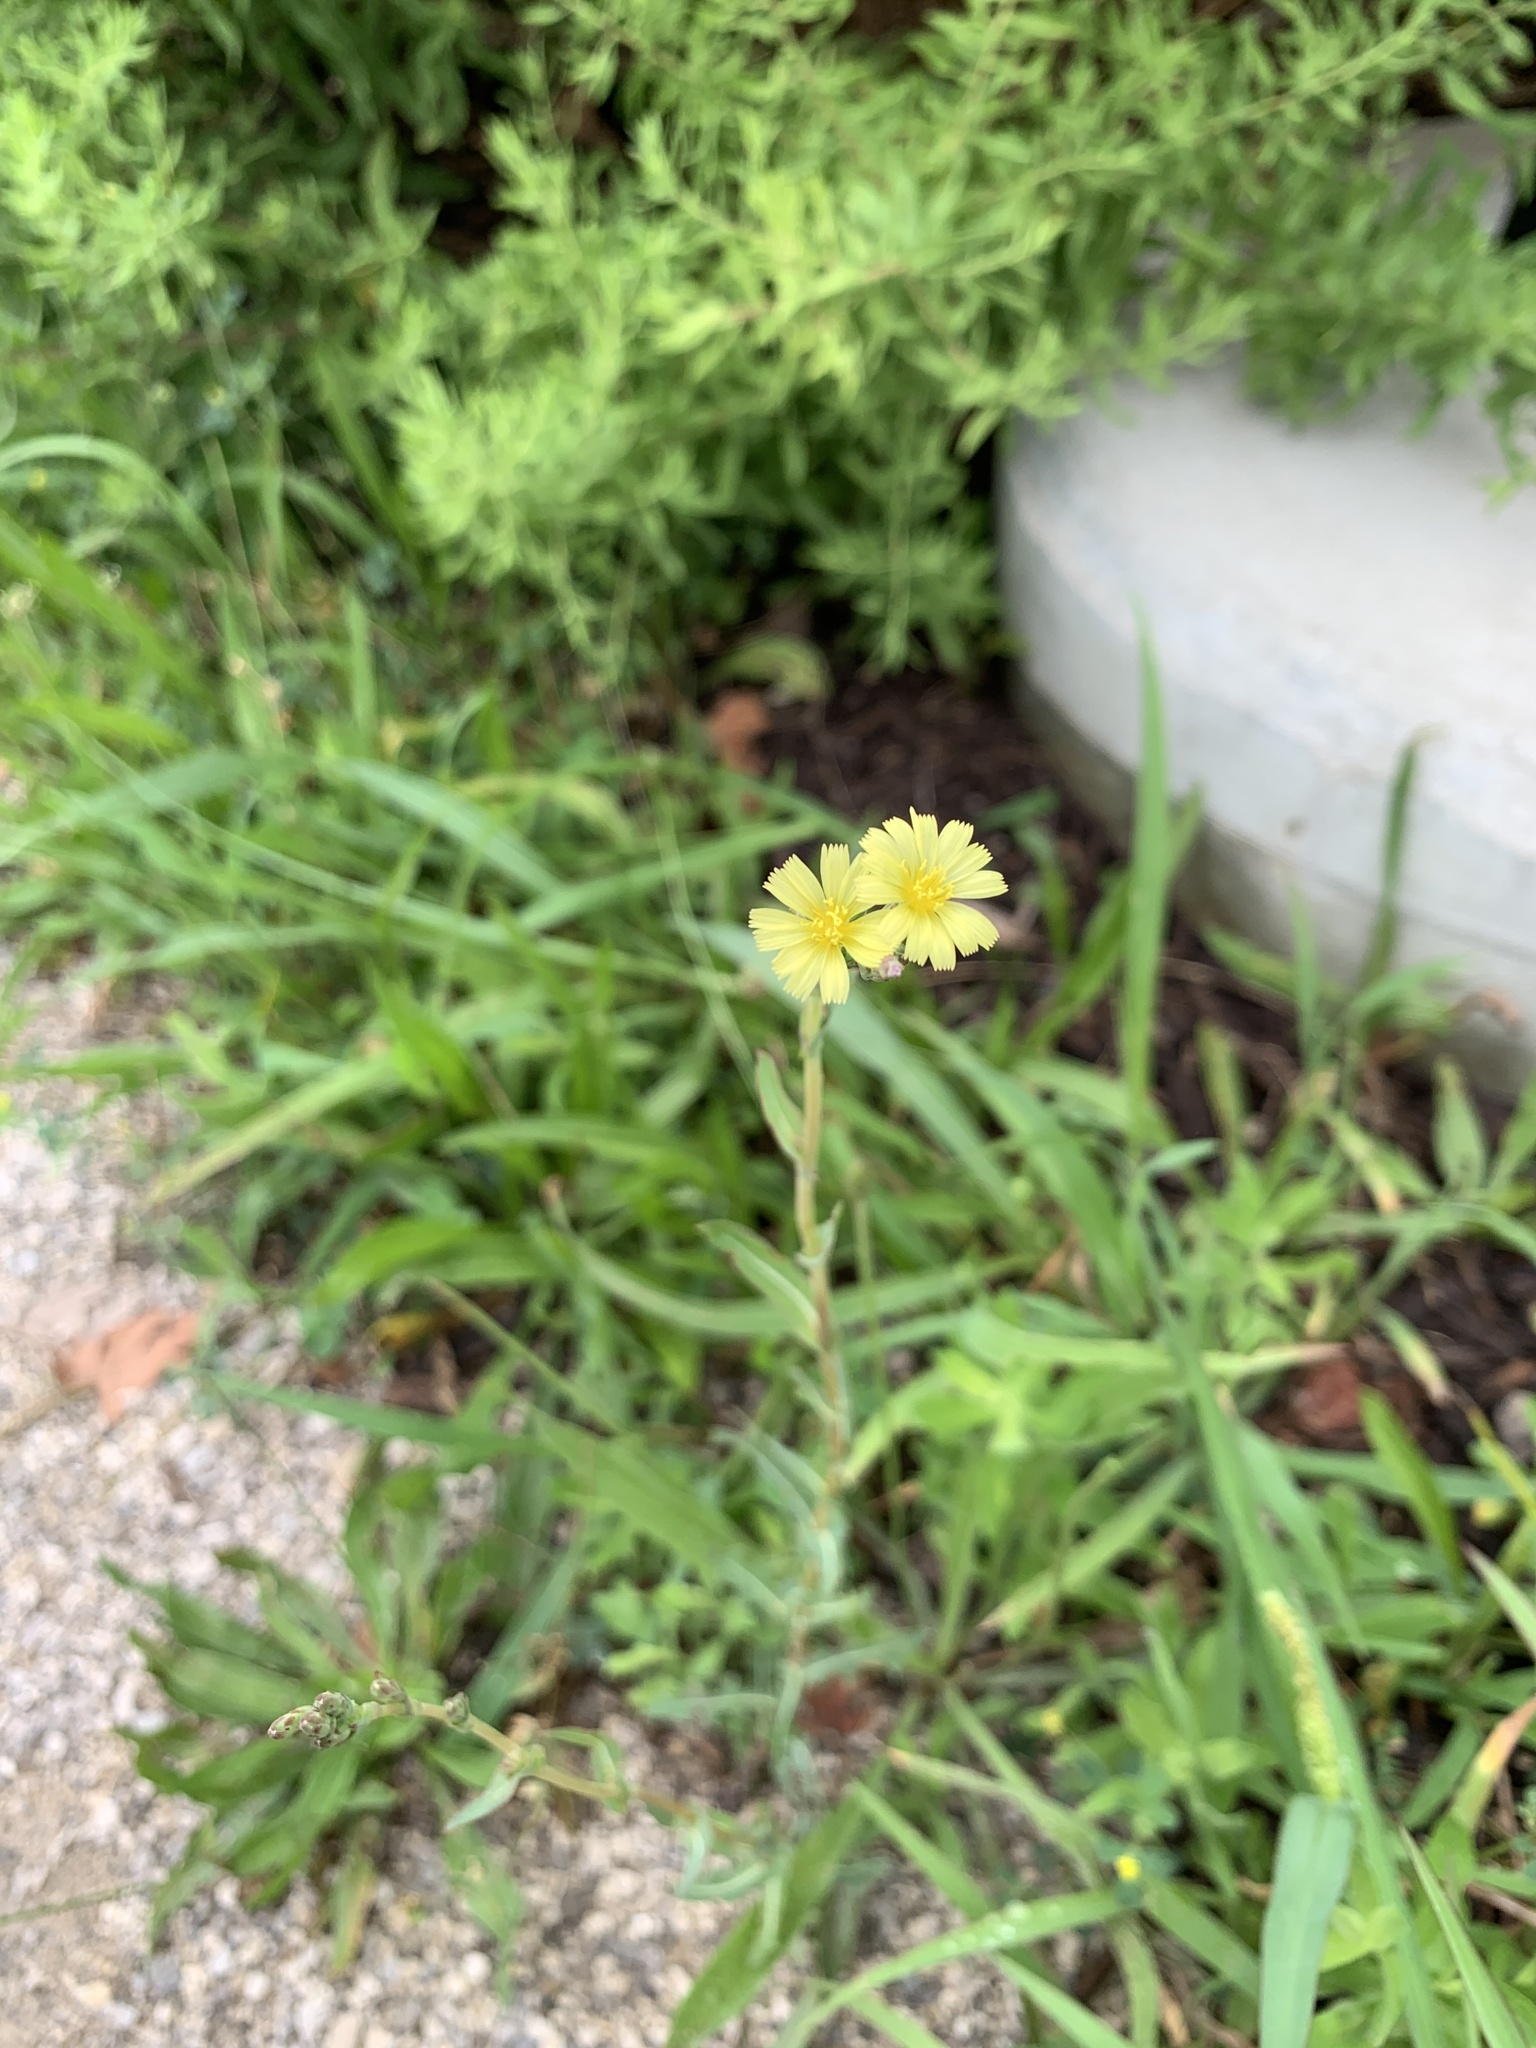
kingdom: Plantae
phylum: Tracheophyta
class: Magnoliopsida
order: Asterales
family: Asteraceae
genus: Lactuca
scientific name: Lactuca serriola
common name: Prickly lettuce
